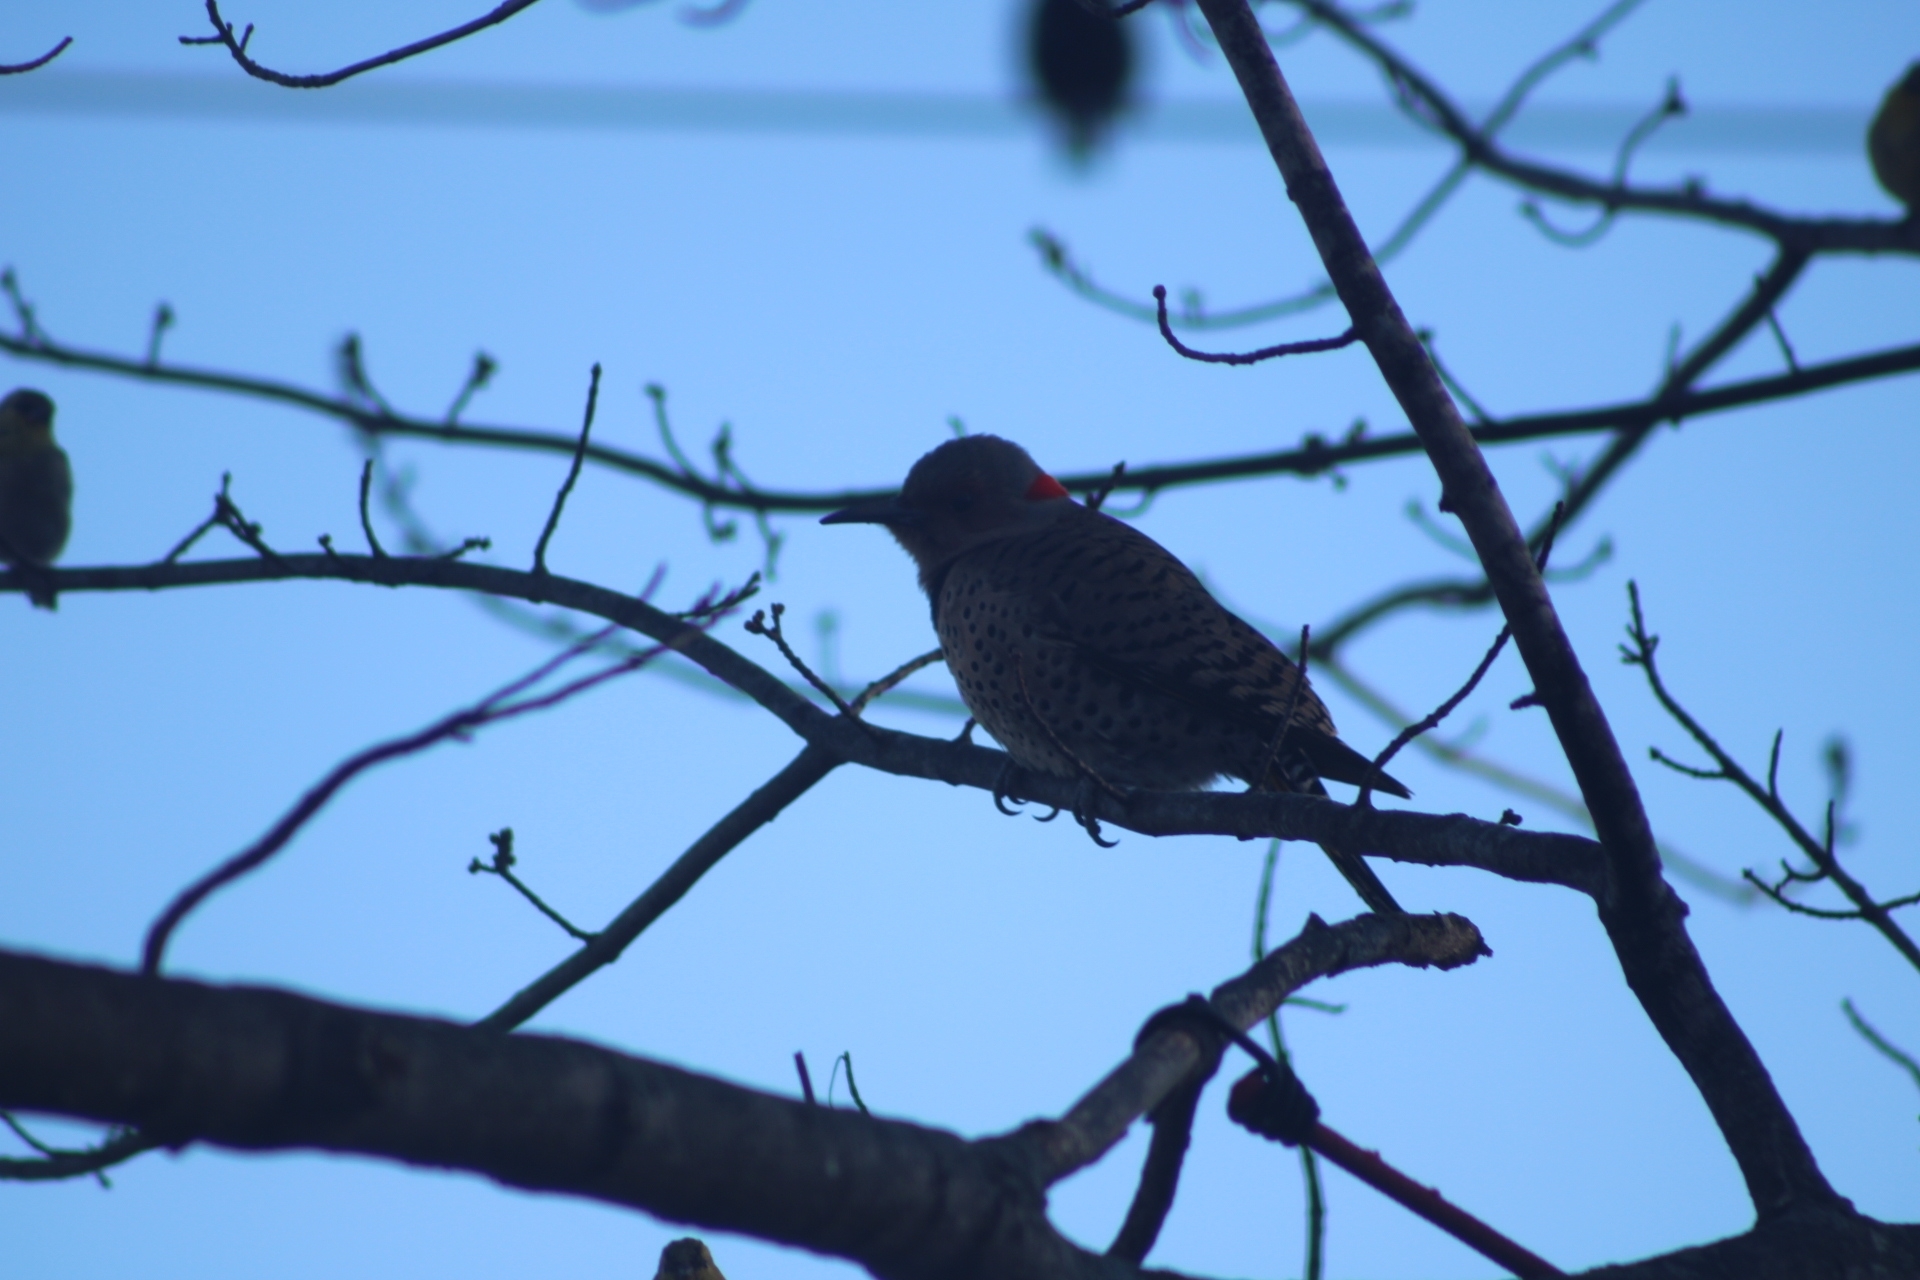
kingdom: Animalia
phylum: Chordata
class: Aves
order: Piciformes
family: Picidae
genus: Colaptes
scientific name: Colaptes auratus
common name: Northern flicker
